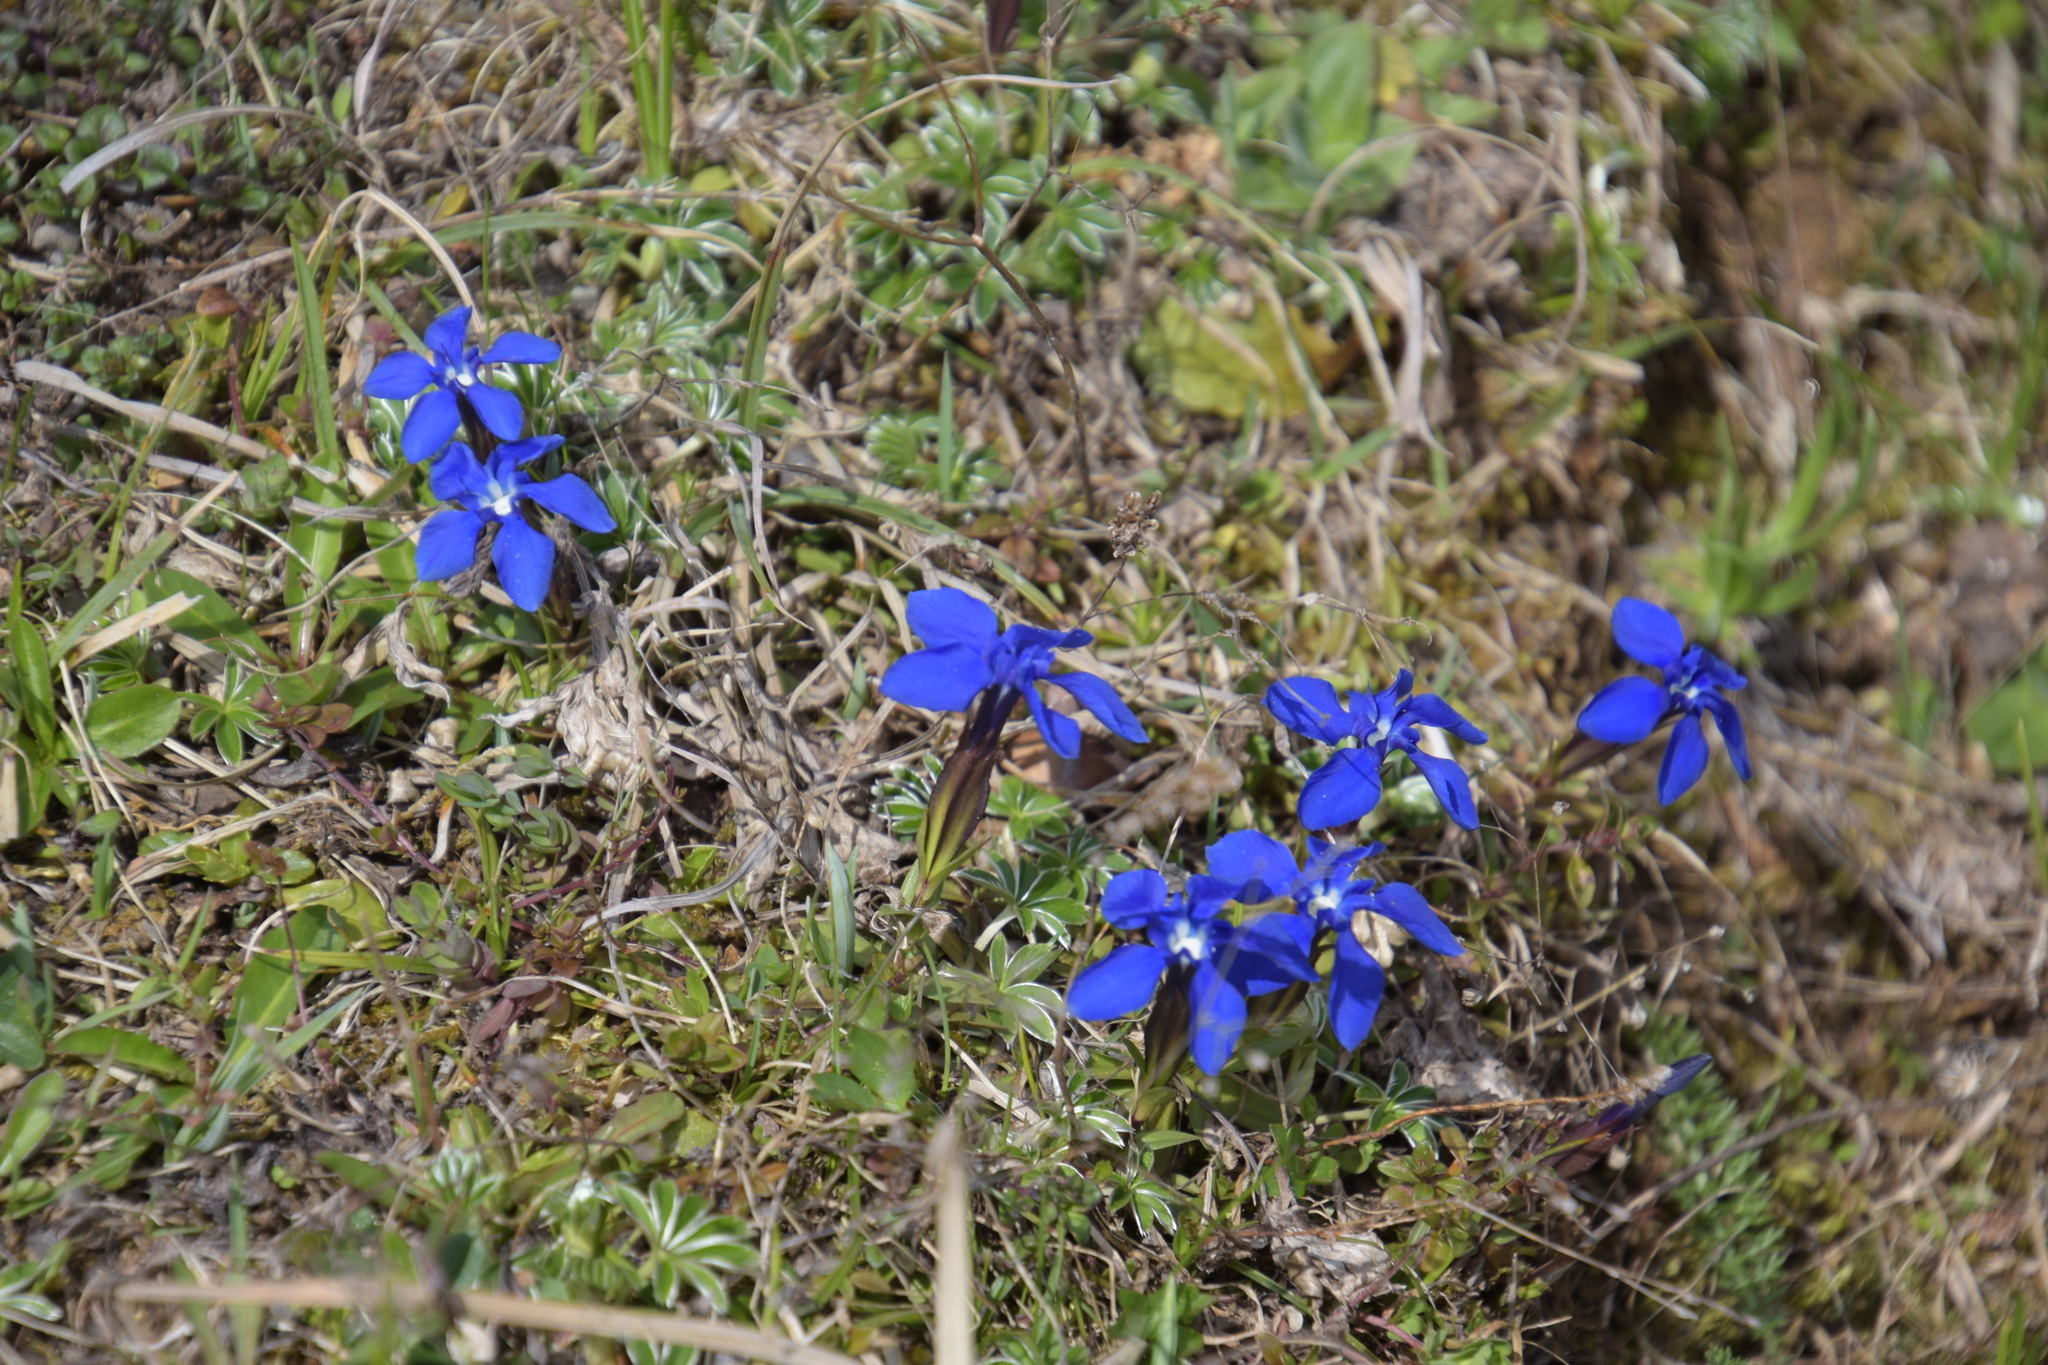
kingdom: Plantae
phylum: Tracheophyta
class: Magnoliopsida
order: Gentianales
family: Gentianaceae
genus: Gentiana
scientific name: Gentiana verna
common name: Spring gentian
